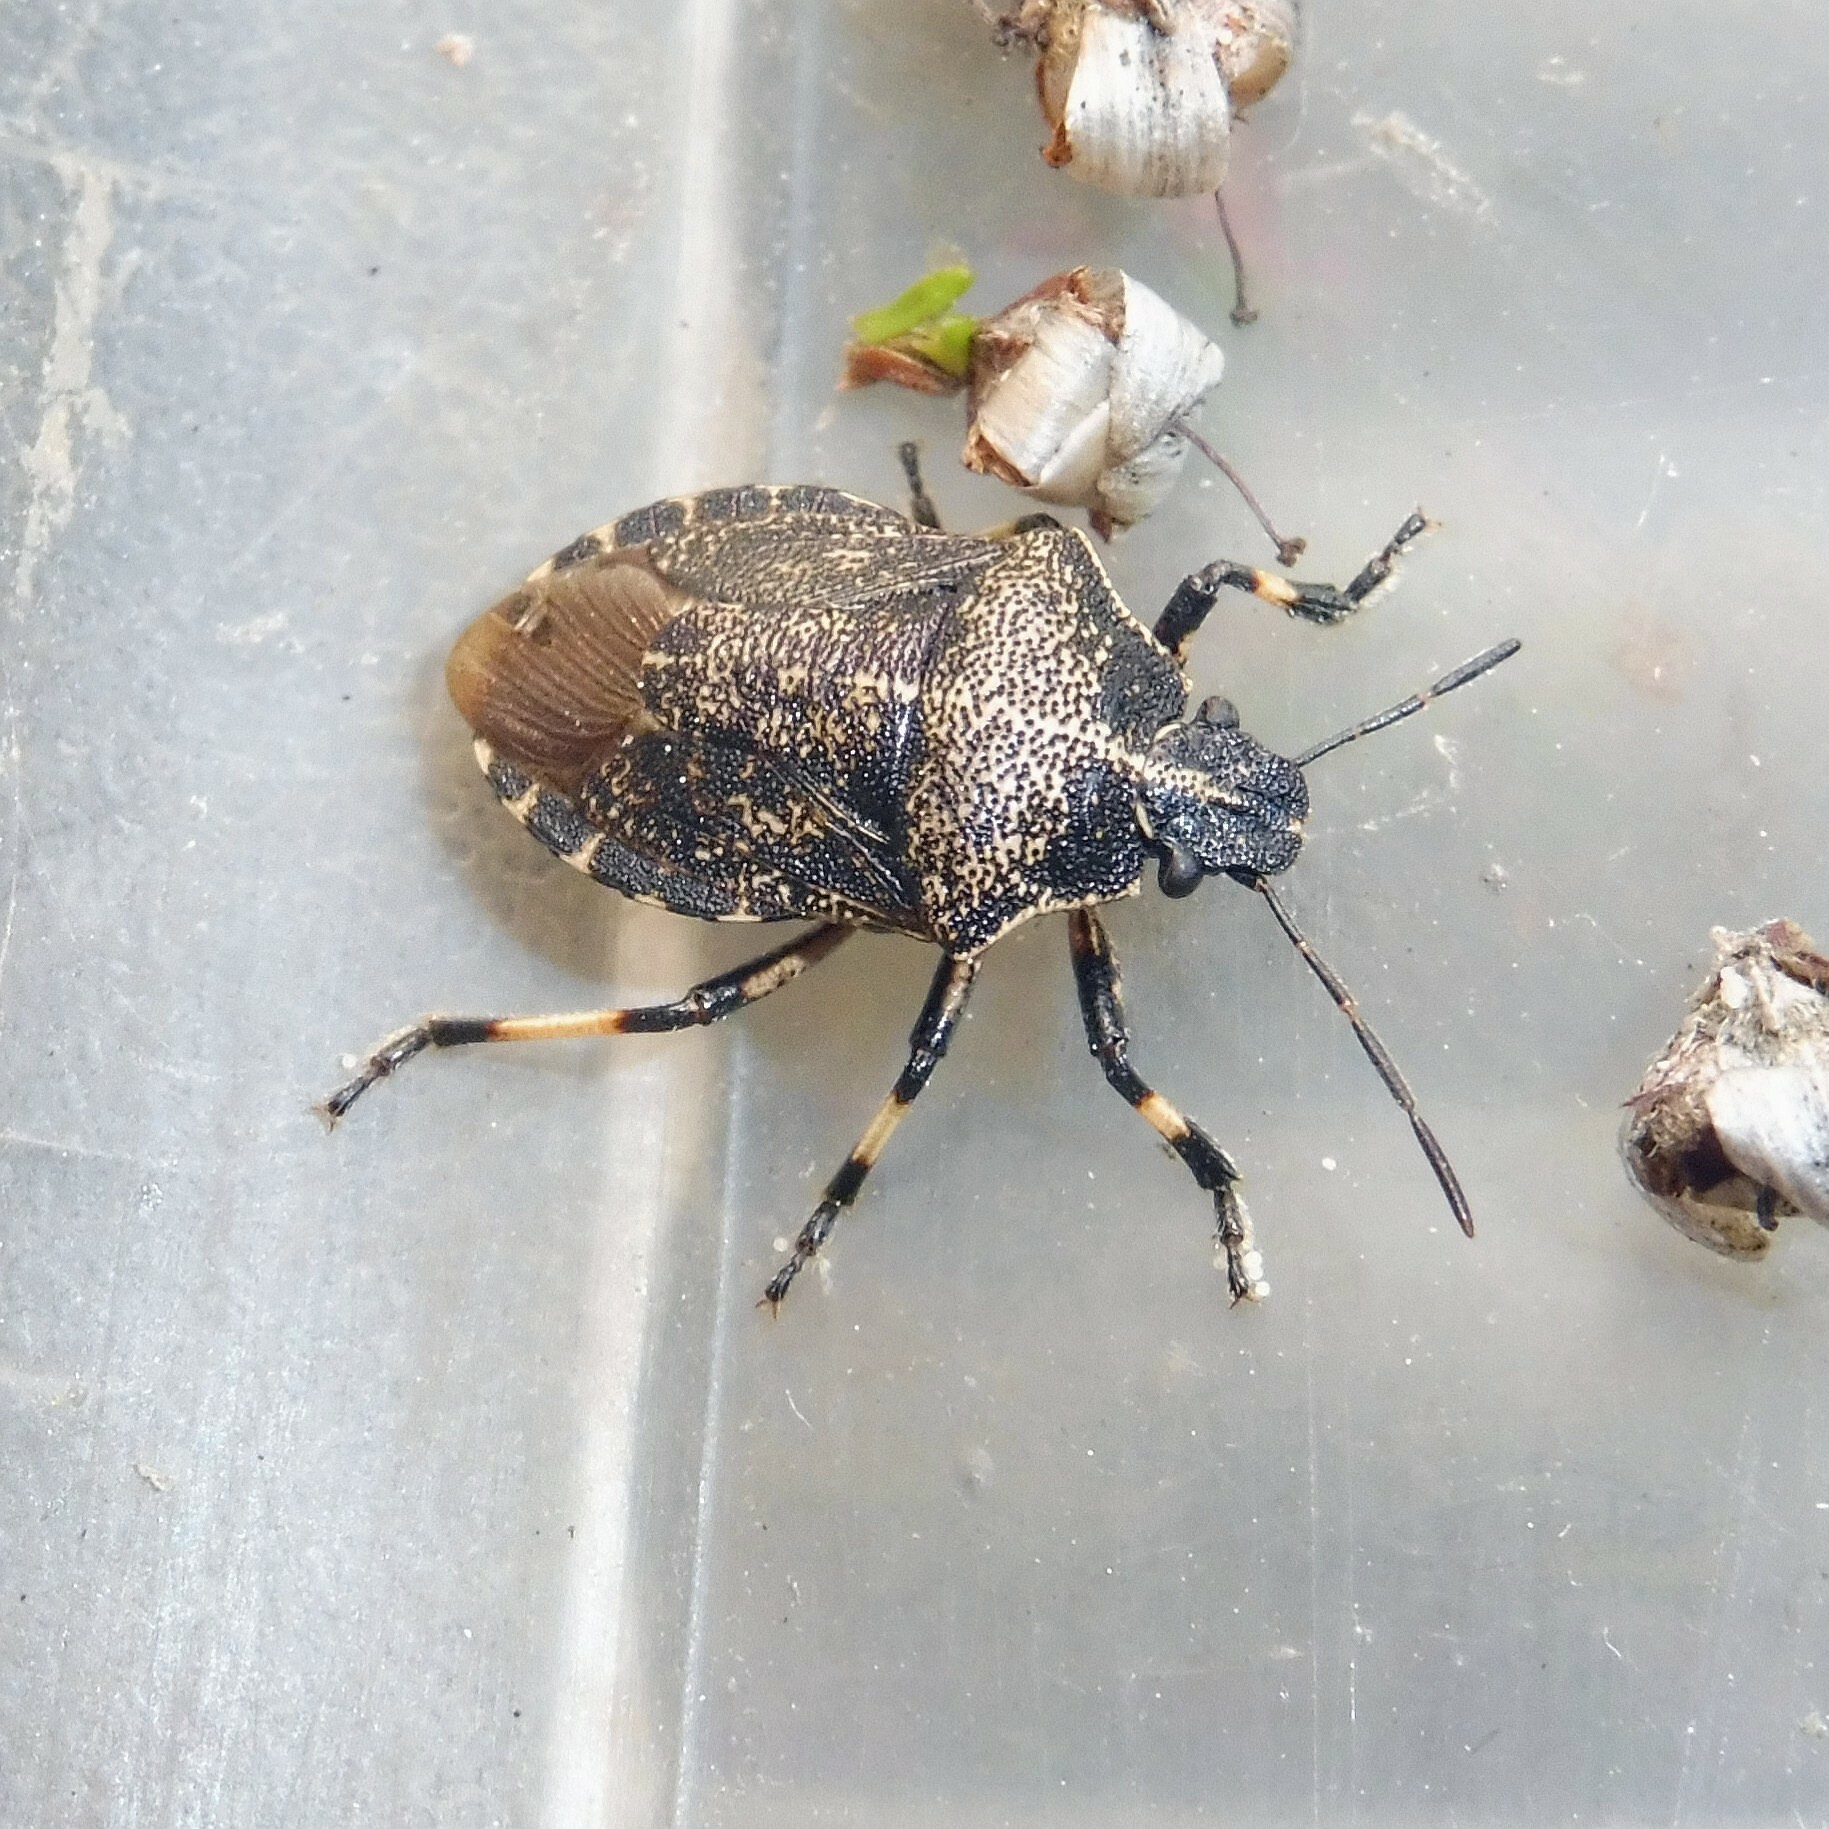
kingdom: Animalia
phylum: Arthropoda
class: Insecta
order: Hemiptera
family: Pentatomidae
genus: Rhacognathus
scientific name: Rhacognathus punctatus
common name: Heather bug
